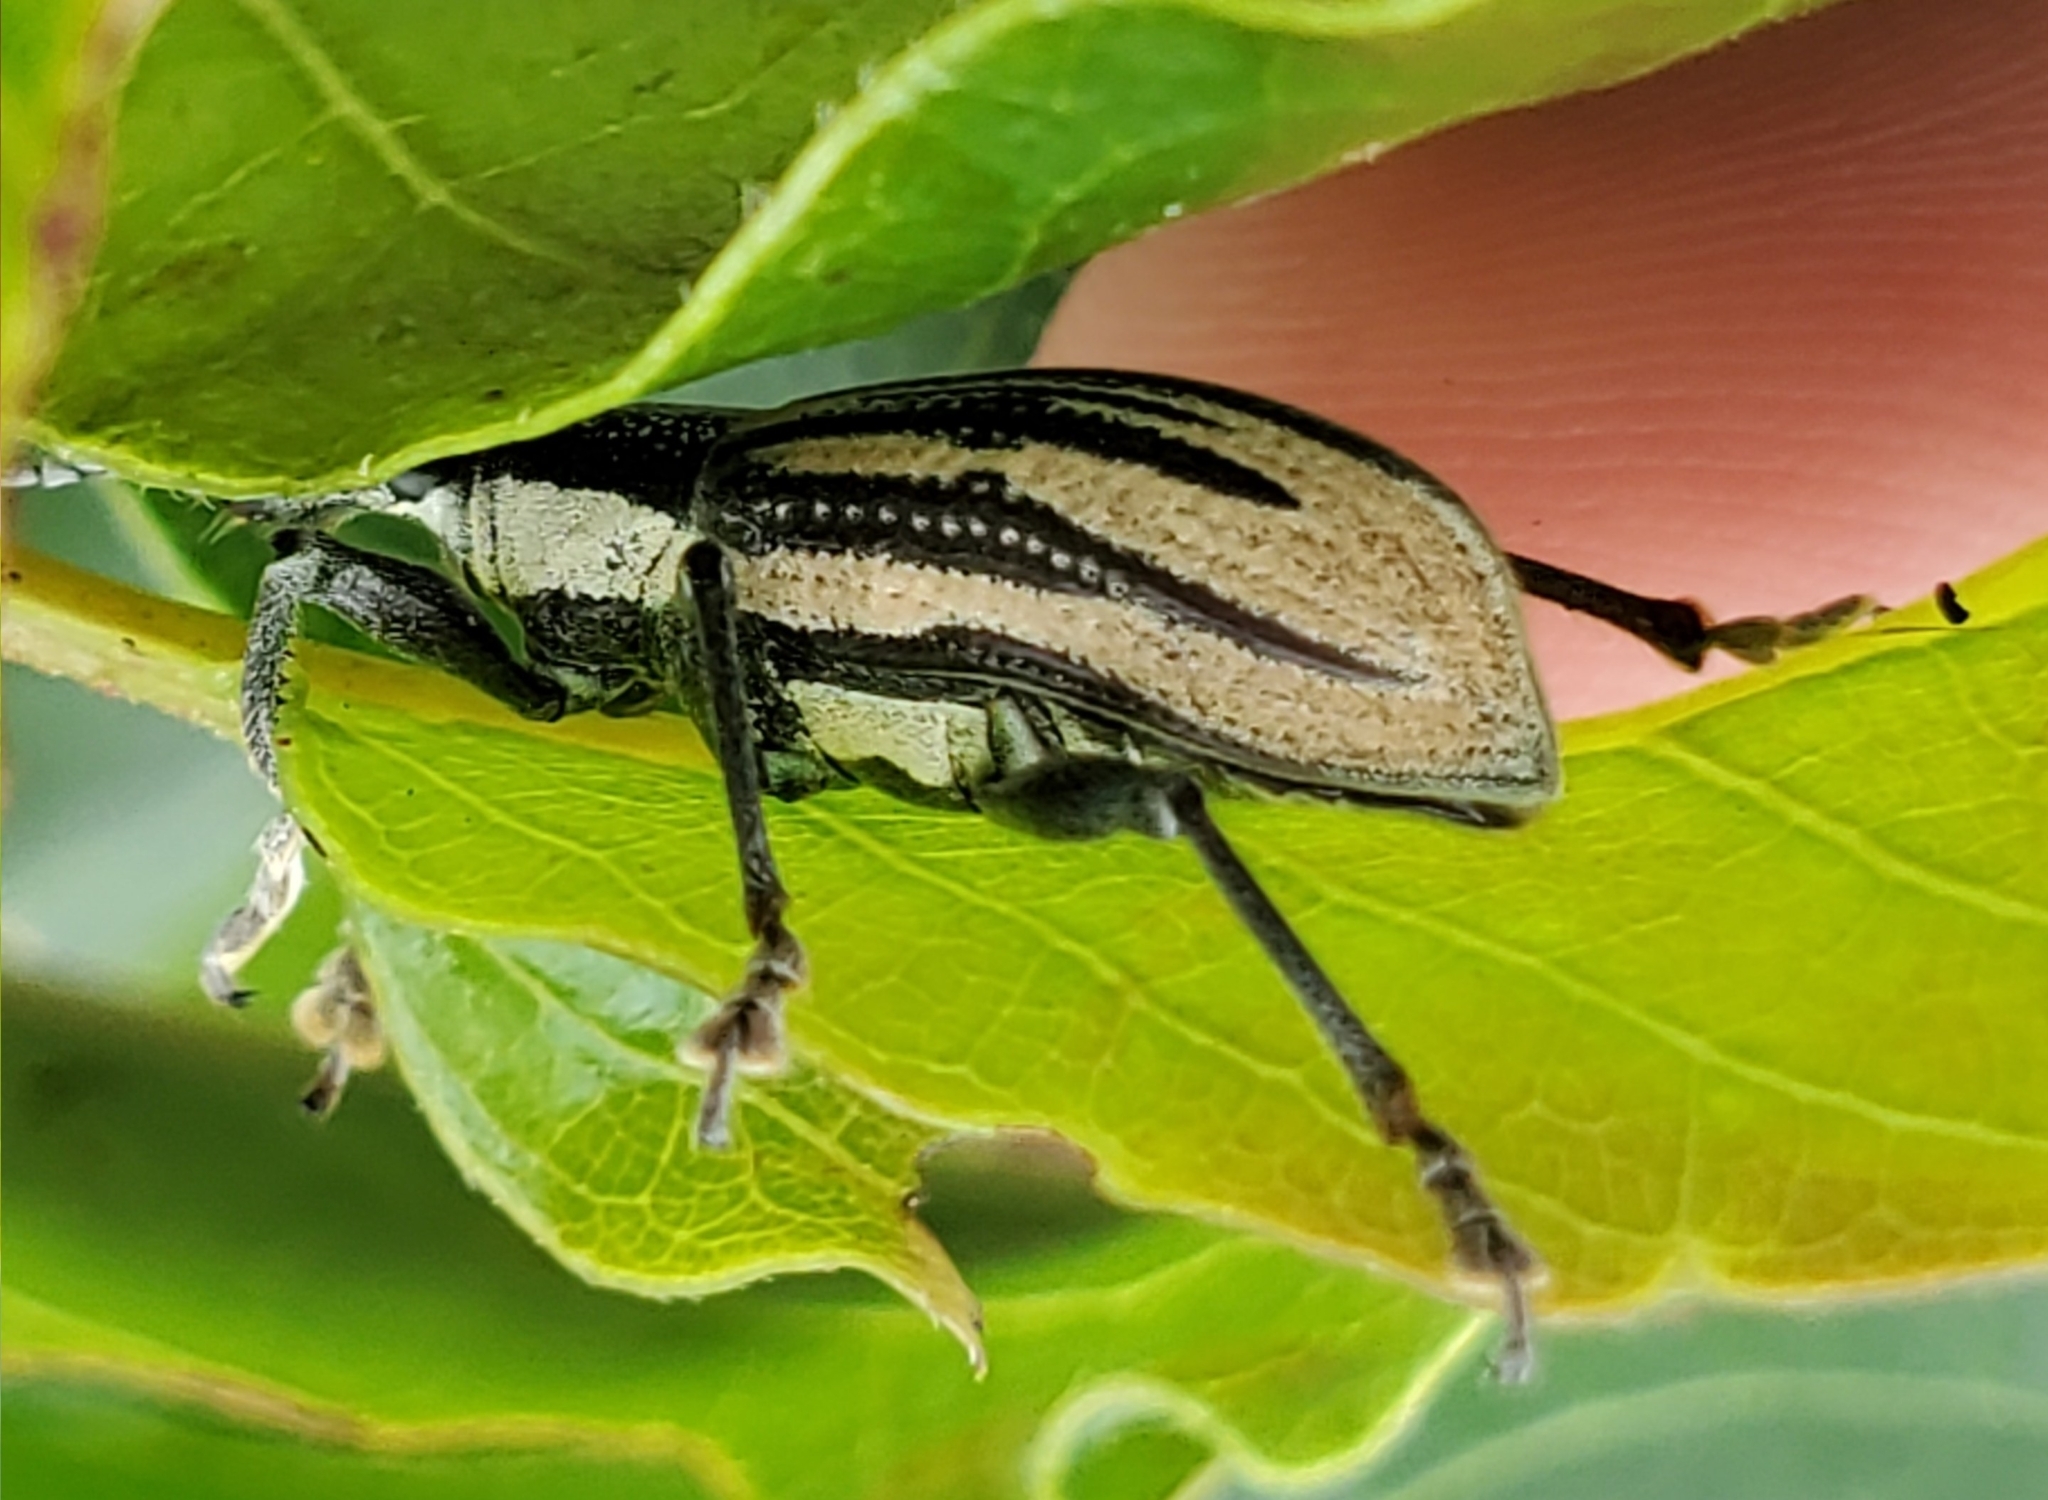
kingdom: Animalia
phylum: Arthropoda
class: Insecta
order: Coleoptera
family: Curculionidae
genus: Diaprepes
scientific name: Diaprepes abbreviatus
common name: Root weevil
